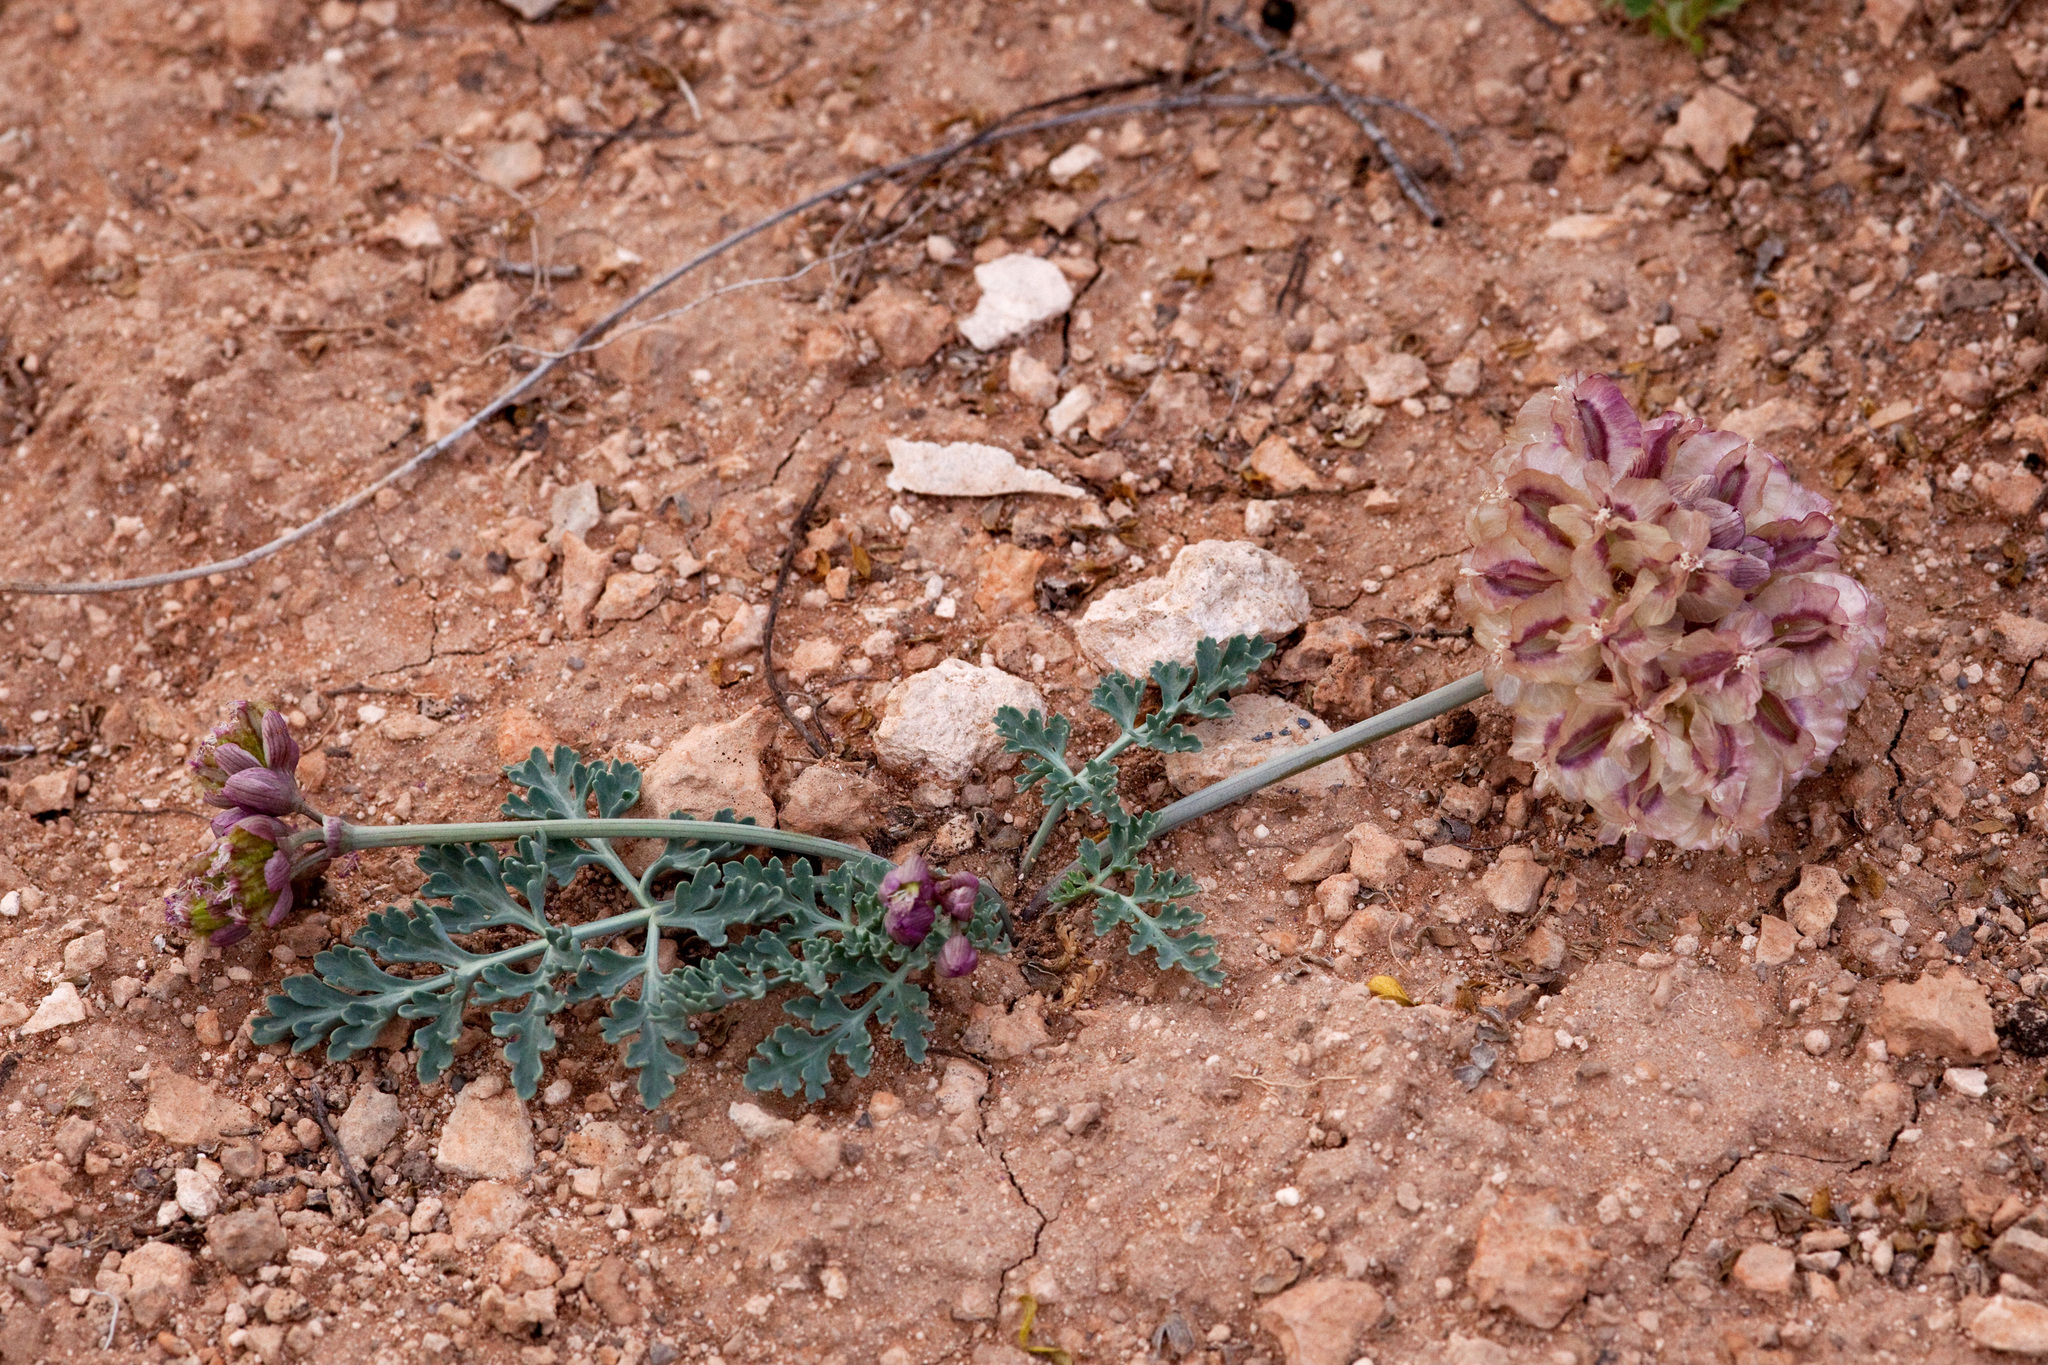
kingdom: Plantae
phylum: Tracheophyta
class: Magnoliopsida
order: Apiales
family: Apiaceae
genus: Vesper
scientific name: Vesper multinervatus
